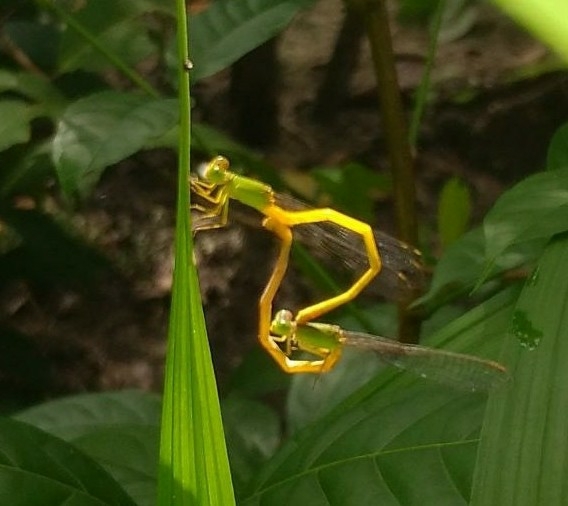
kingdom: Animalia
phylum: Arthropoda
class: Insecta
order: Odonata
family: Coenagrionidae
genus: Ceriagrion
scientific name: Ceriagrion coromandelianum
